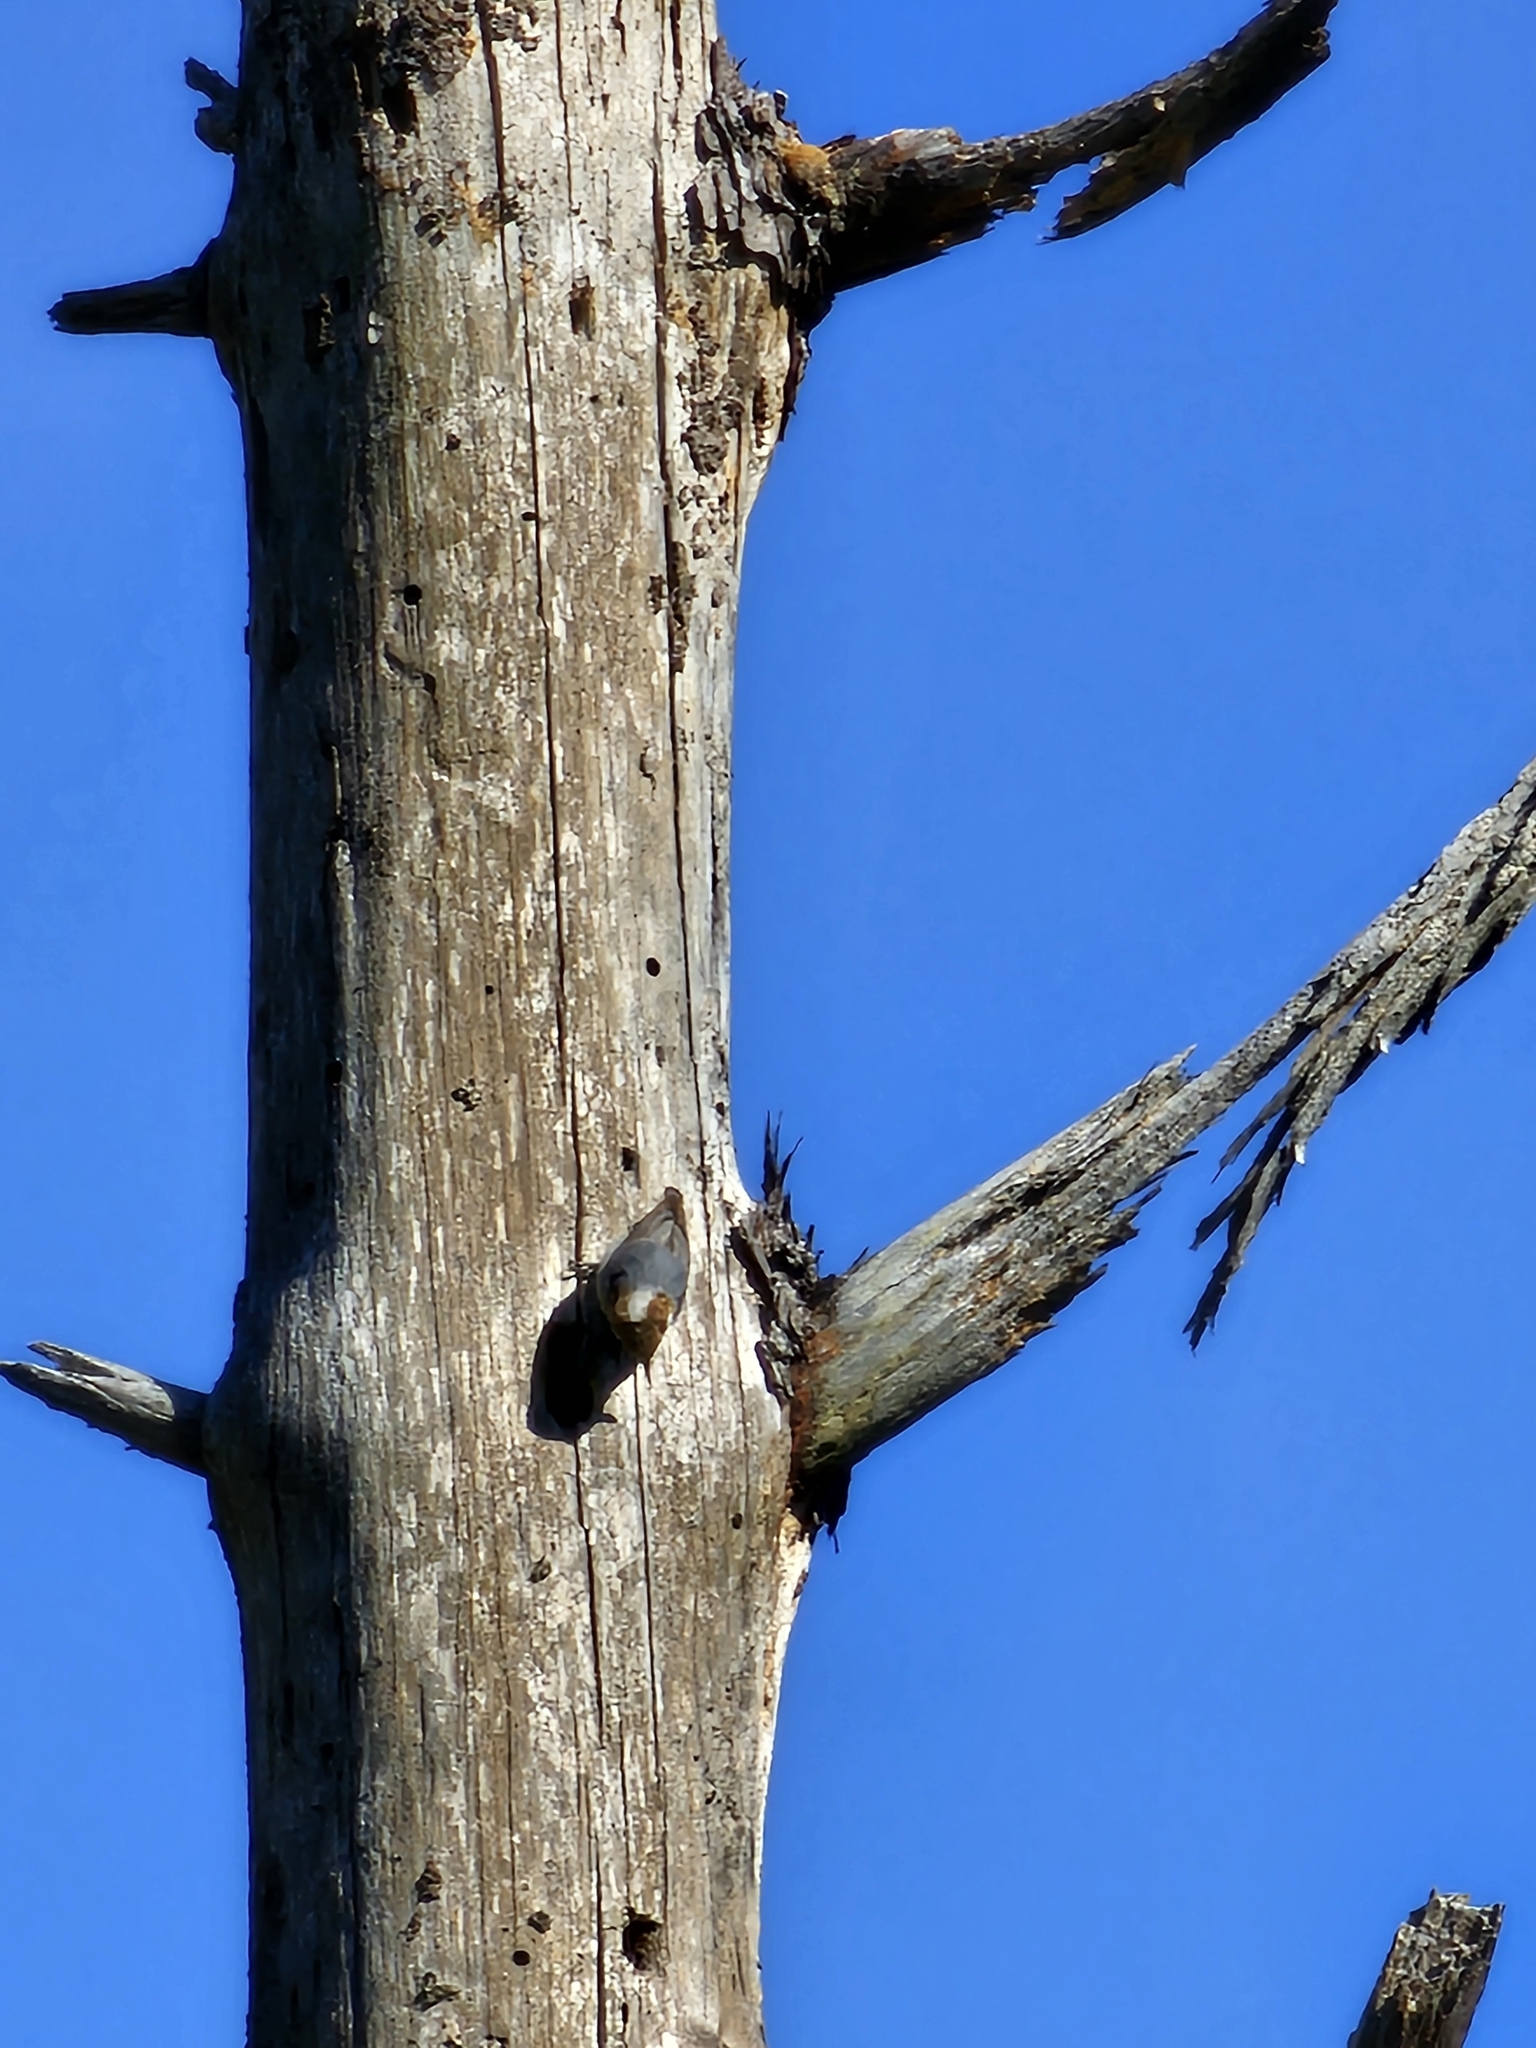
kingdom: Animalia
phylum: Chordata
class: Aves
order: Passeriformes
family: Sittidae
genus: Sitta
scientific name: Sitta pusilla
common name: Brown-headed nuthatch
